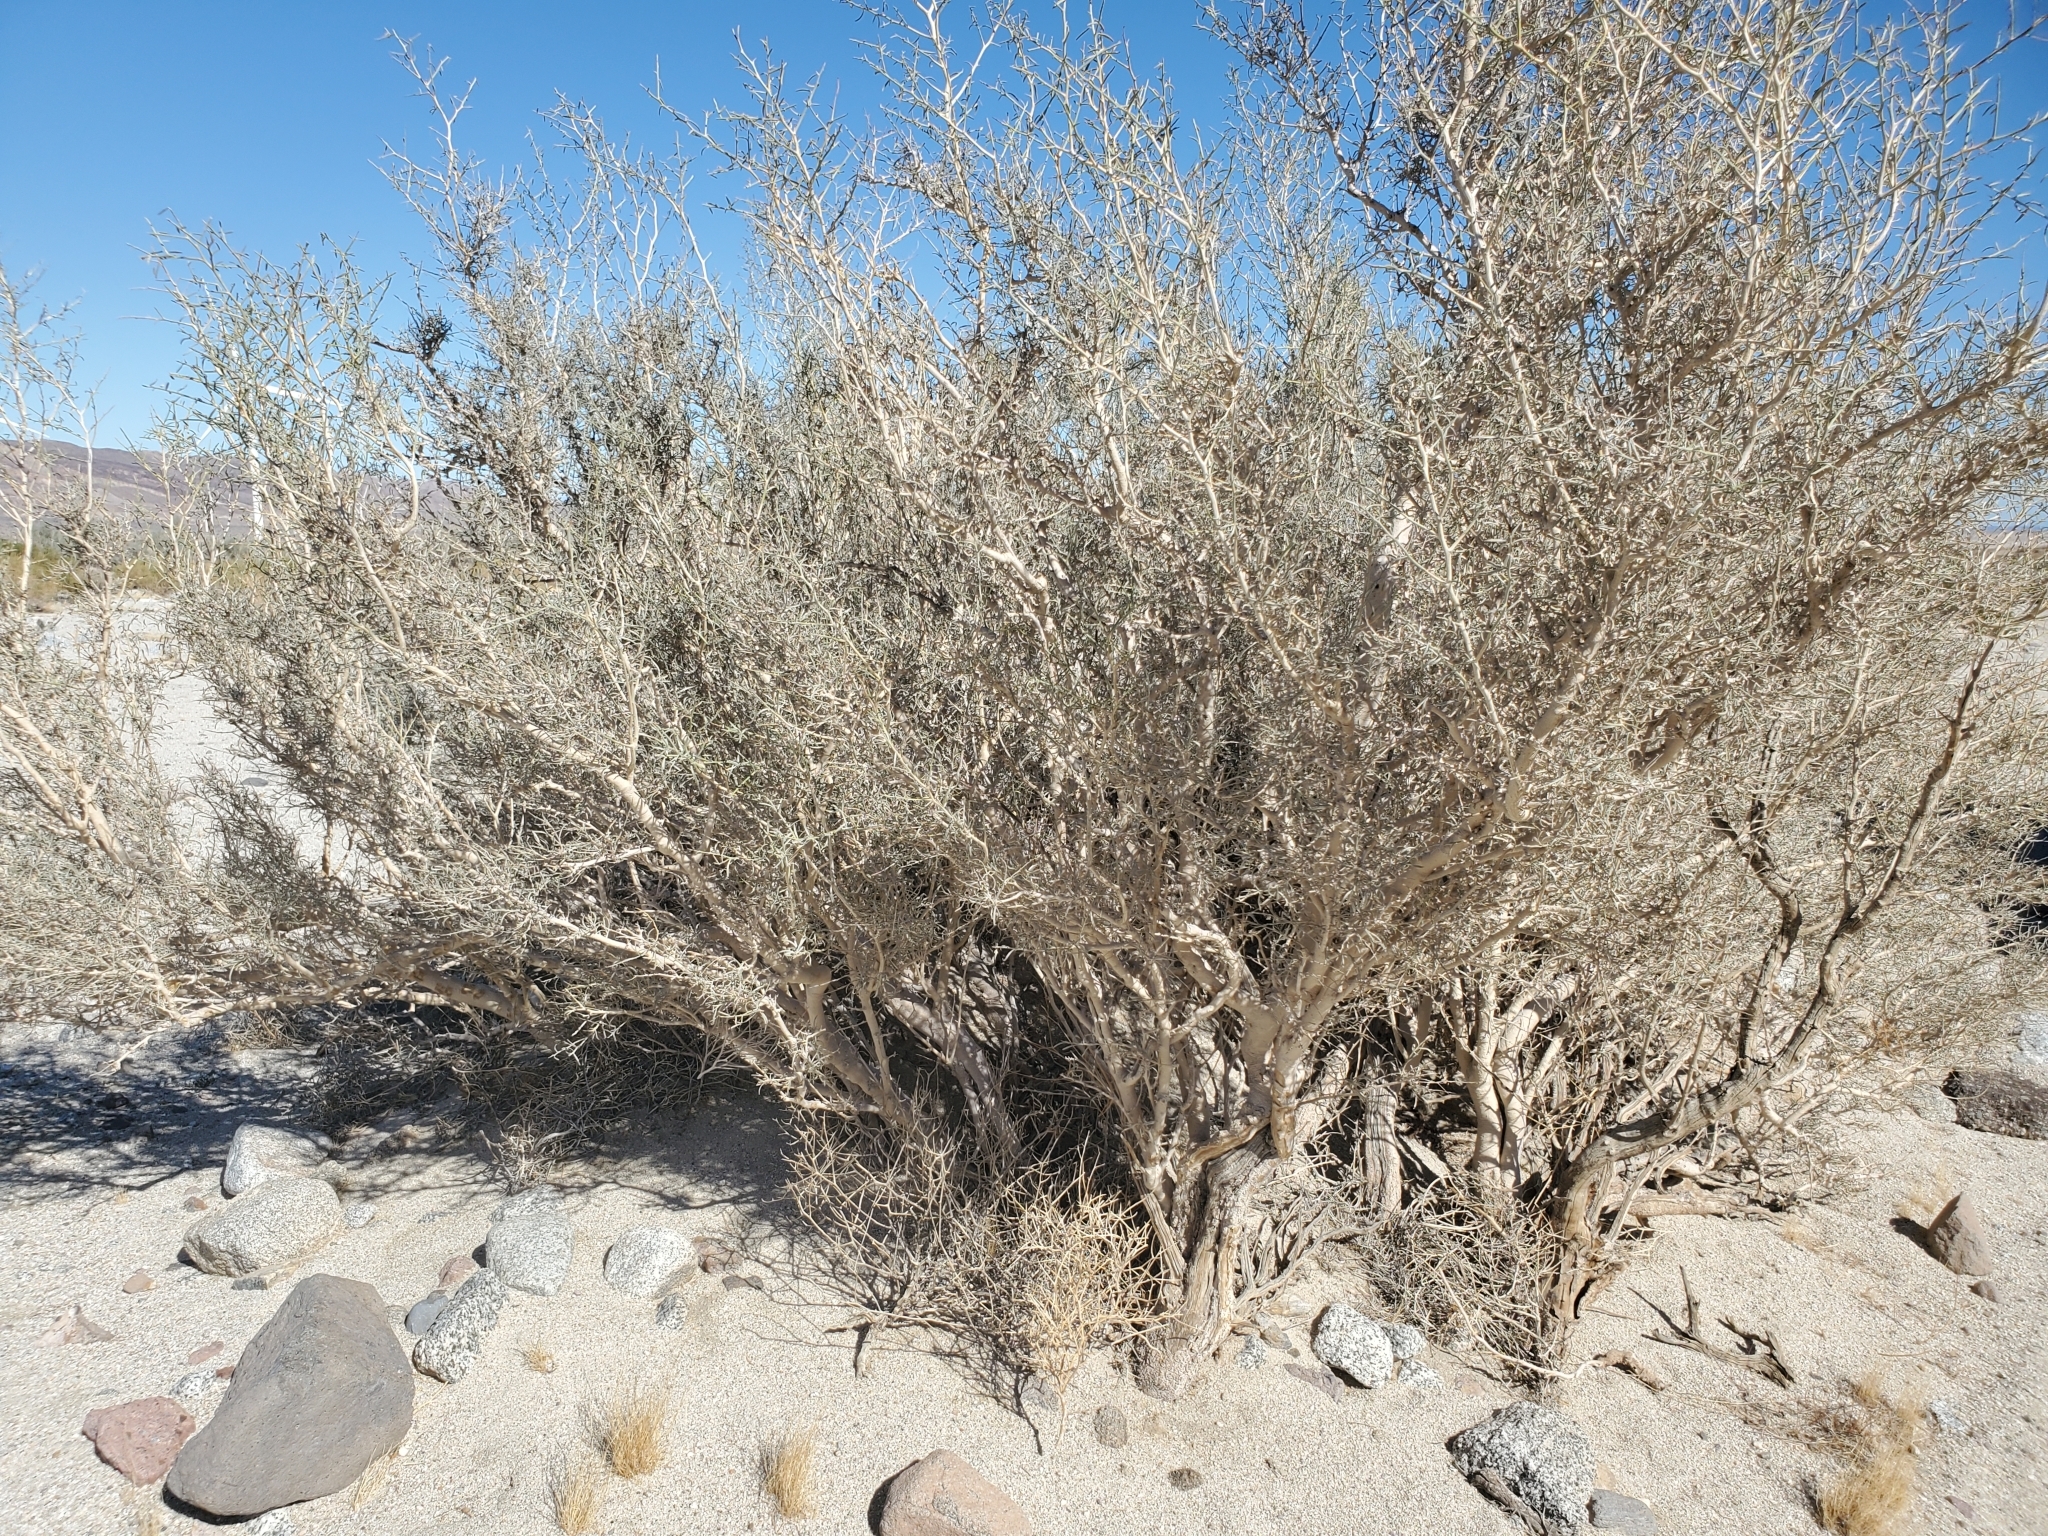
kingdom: Plantae
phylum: Tracheophyta
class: Magnoliopsida
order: Fabales
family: Fabaceae
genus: Psorothamnus
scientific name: Psorothamnus schottii
